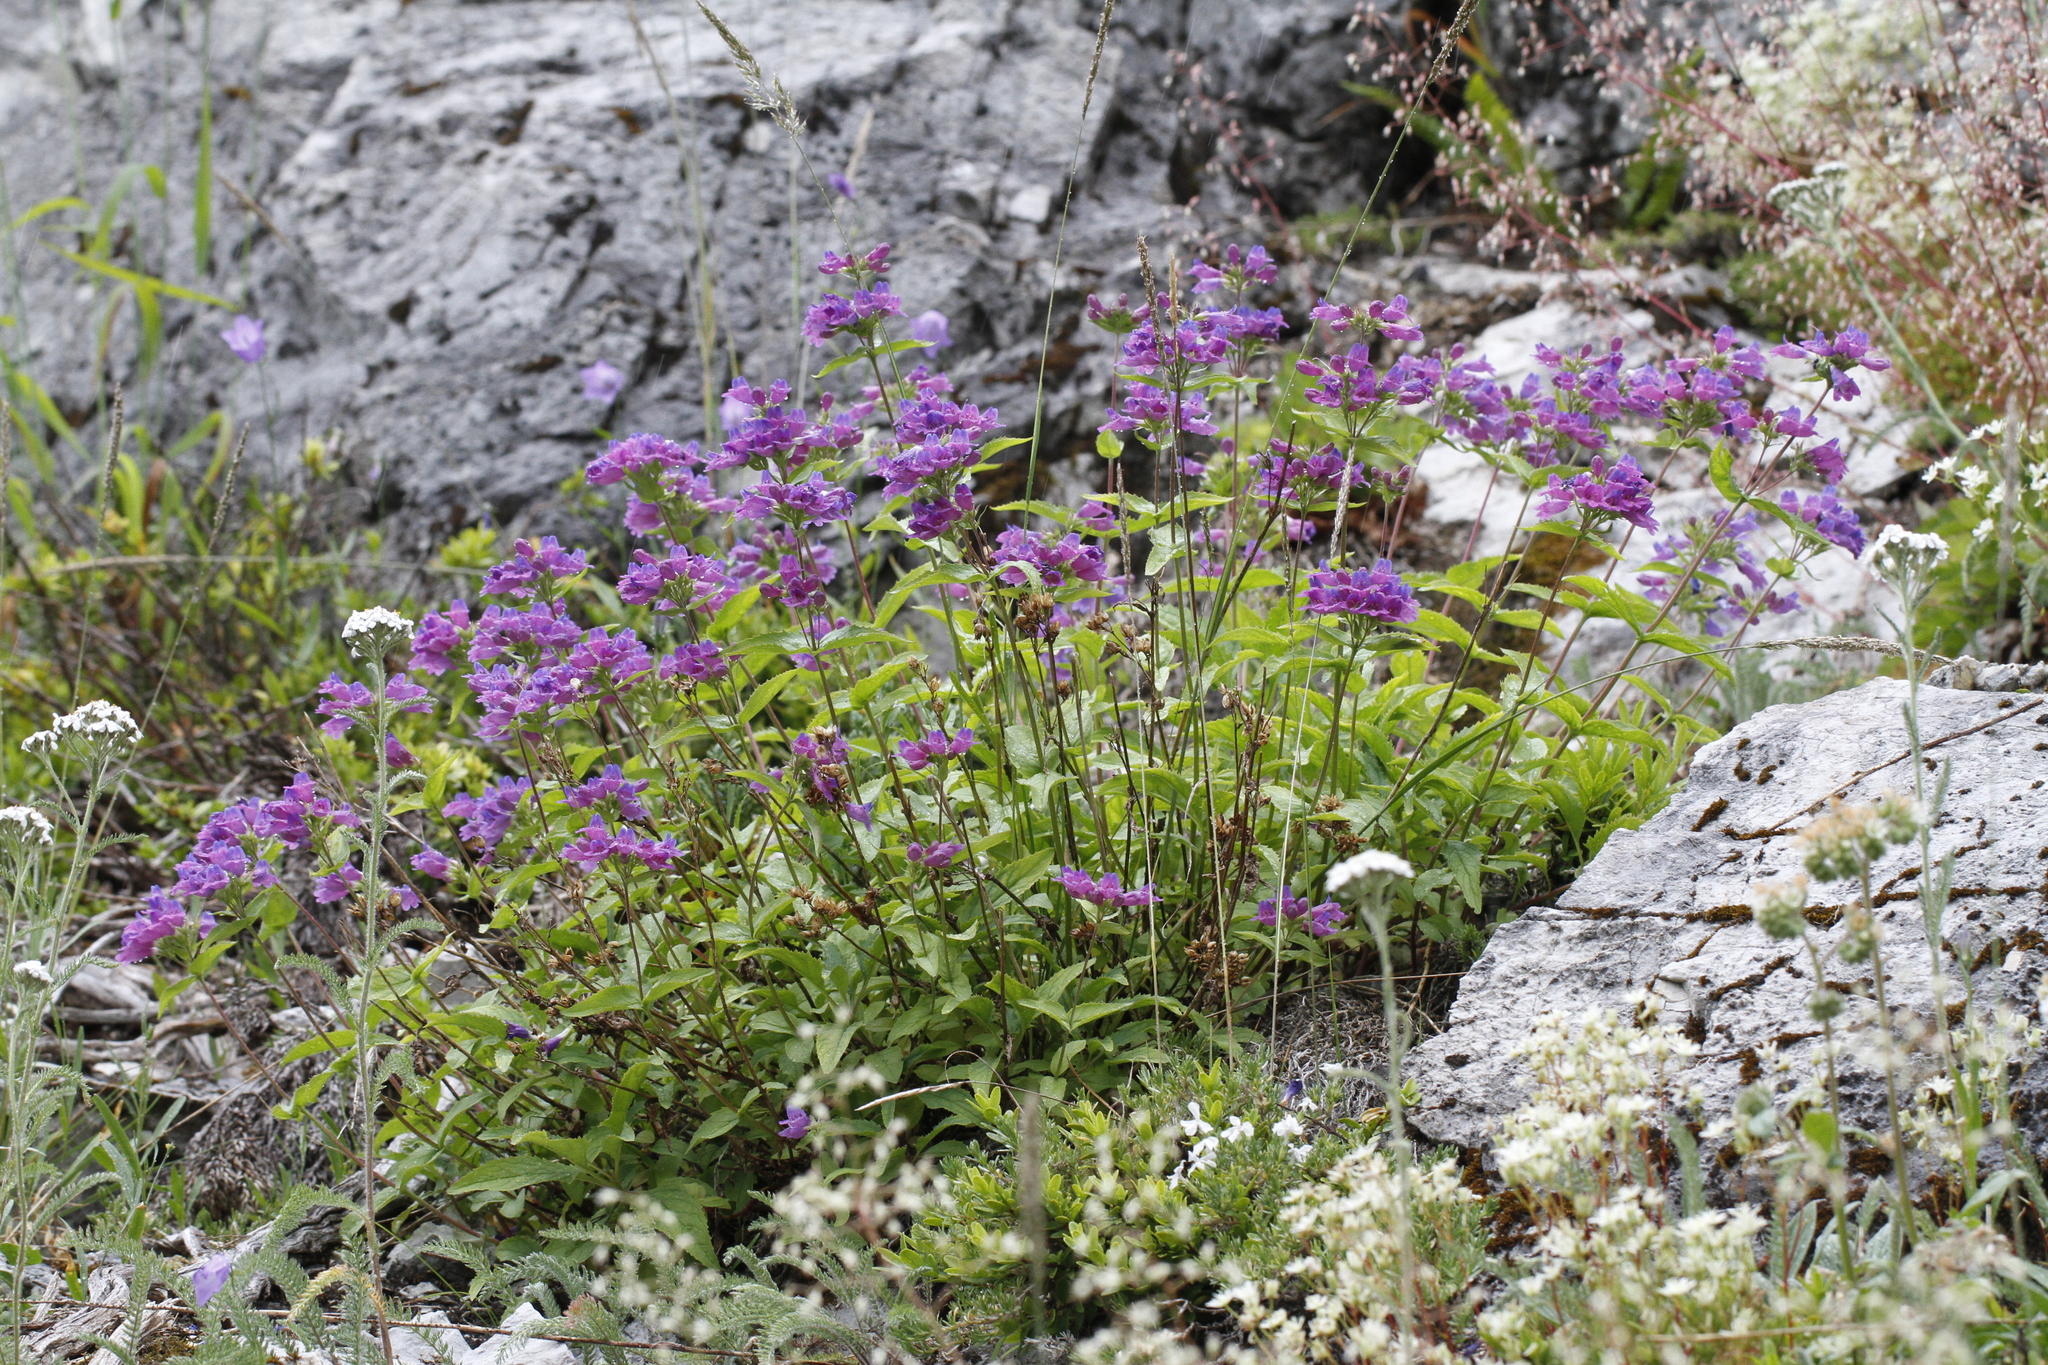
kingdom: Plantae
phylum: Tracheophyta
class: Magnoliopsida
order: Lamiales
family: Plantaginaceae
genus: Penstemon
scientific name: Penstemon serrulatus
